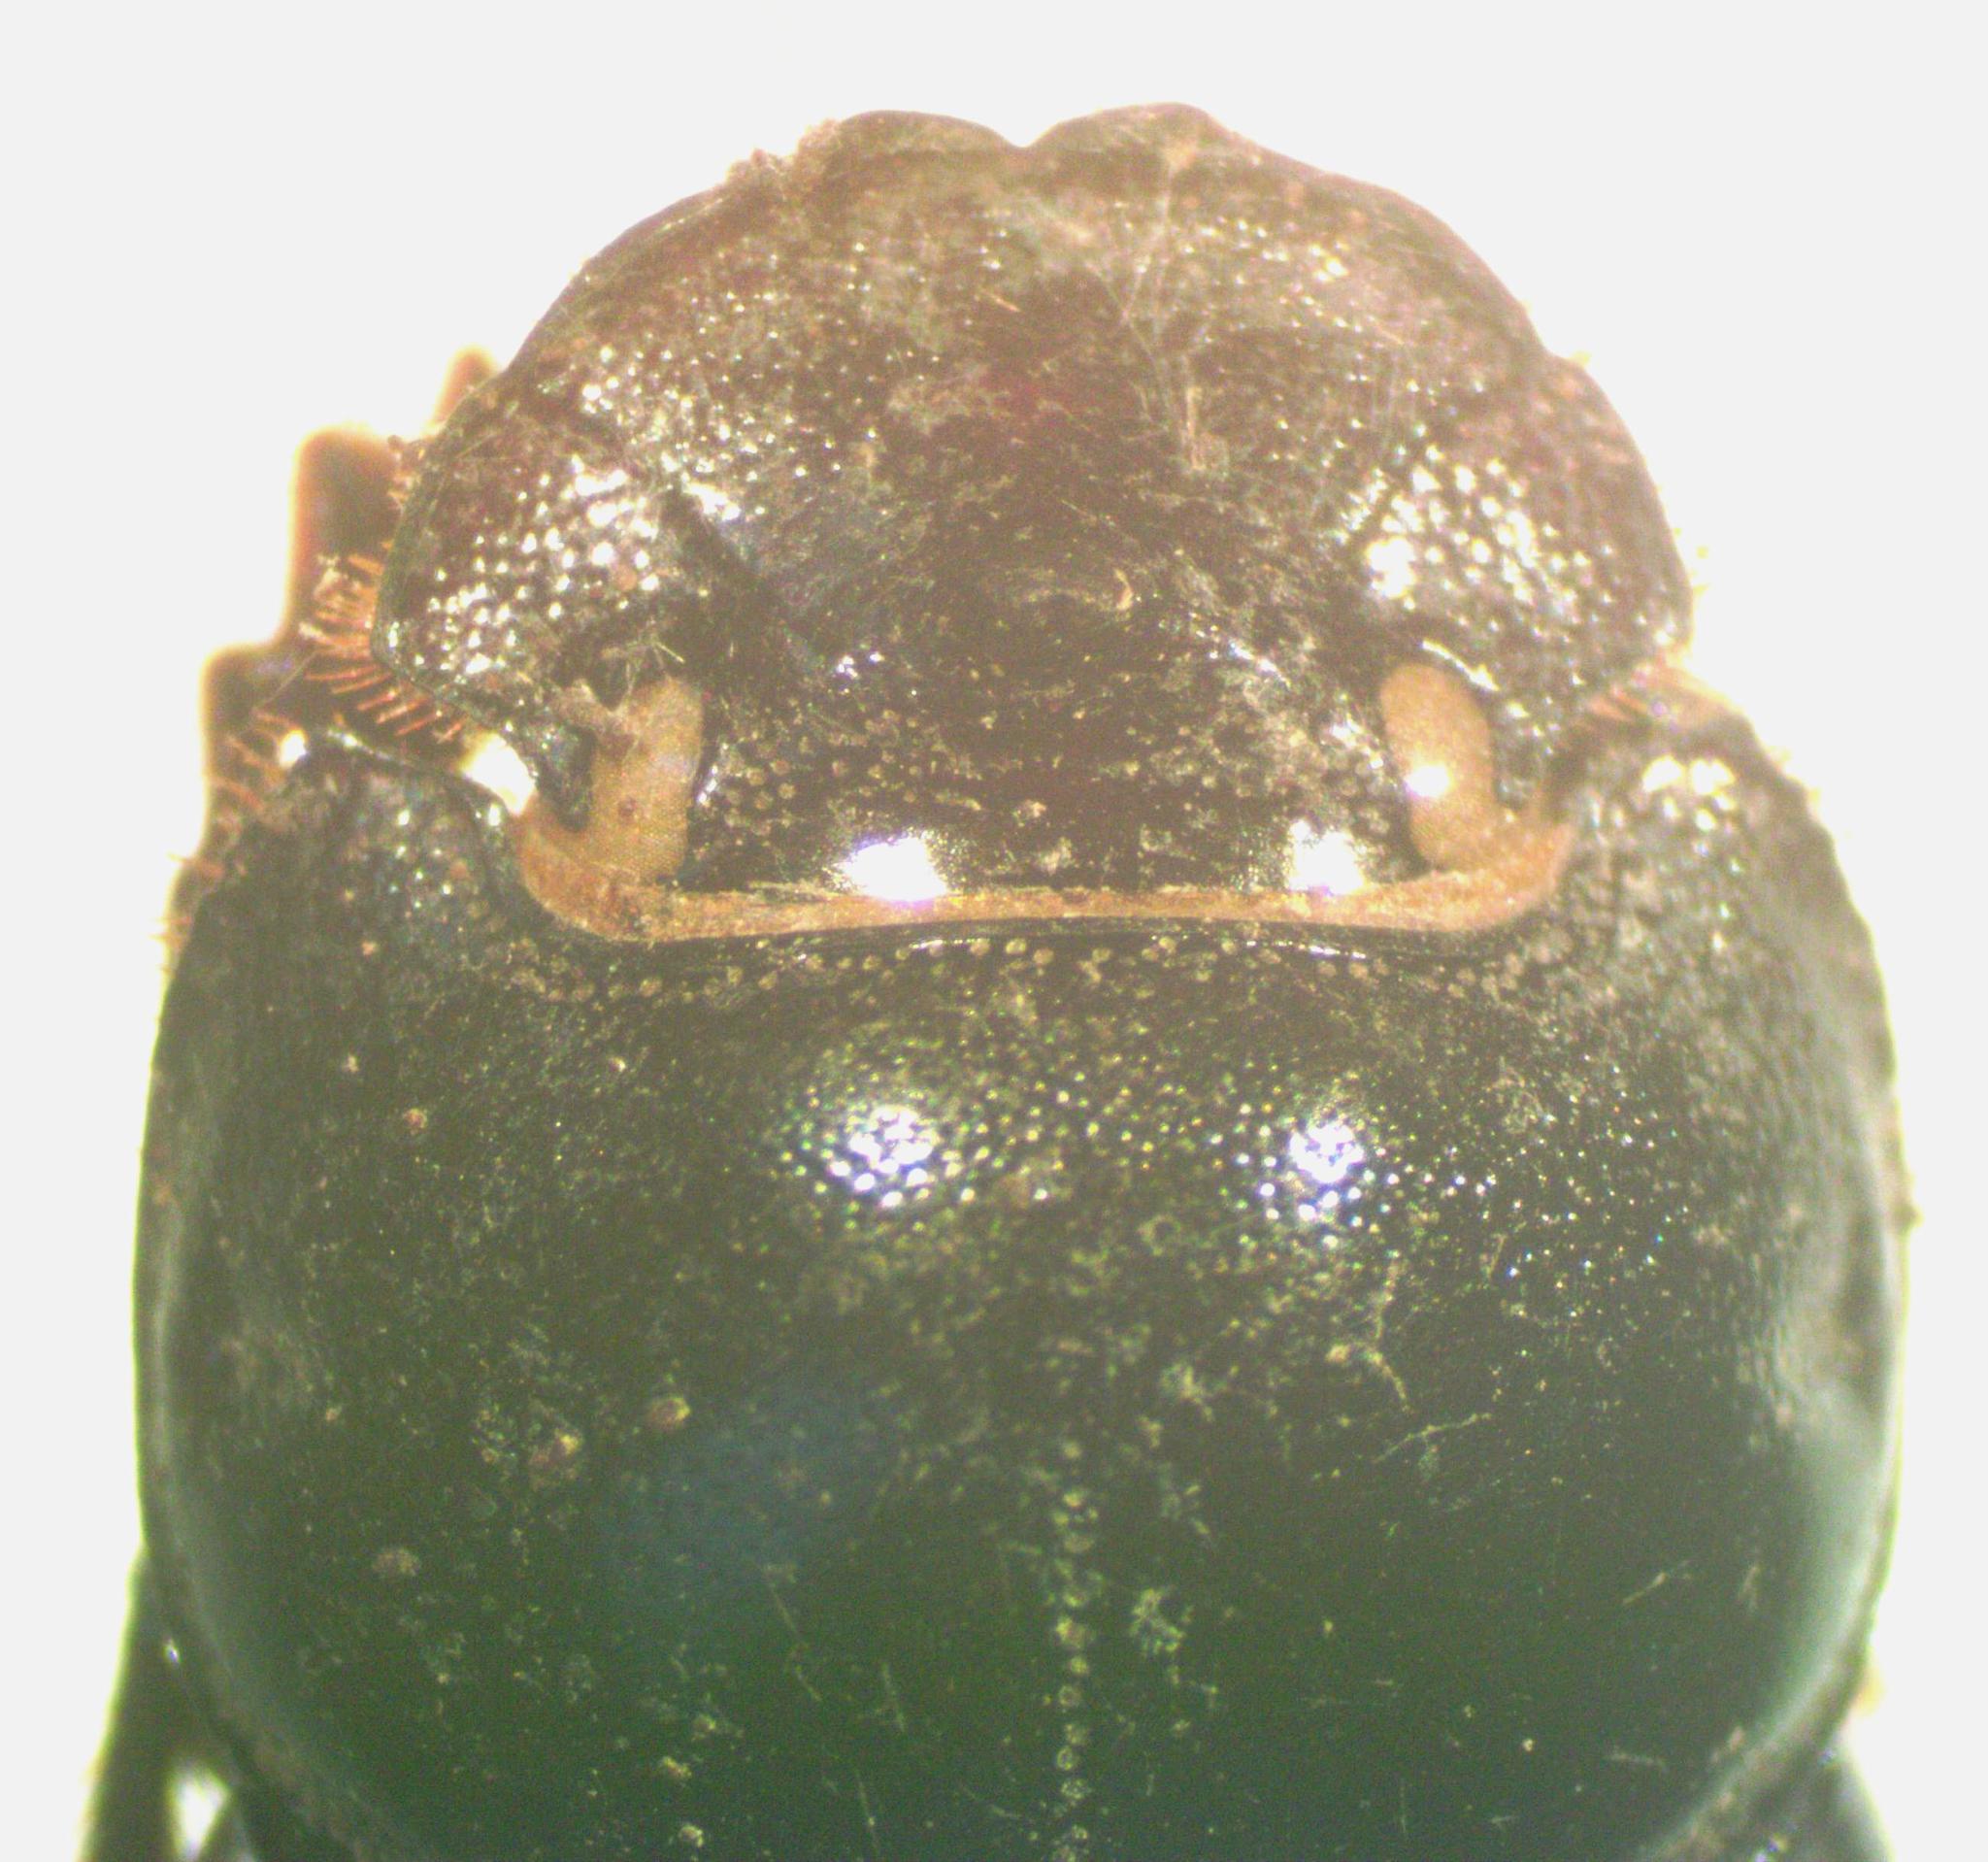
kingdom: Animalia
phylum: Arthropoda
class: Insecta
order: Coleoptera
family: Scarabaeidae
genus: Copris
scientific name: Copris lugubris
